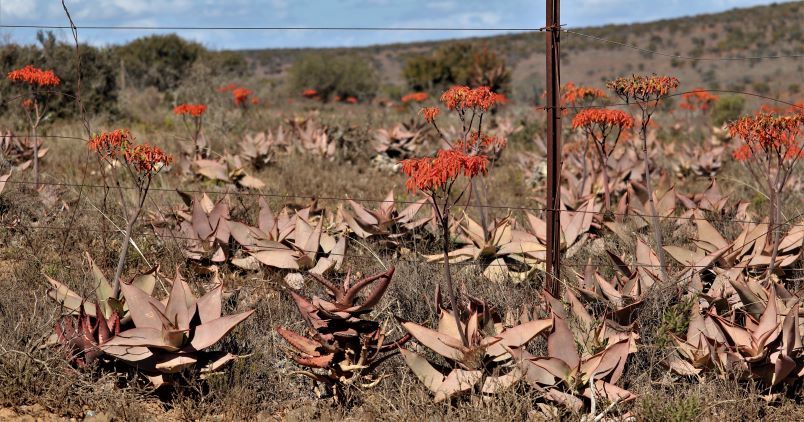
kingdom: Plantae
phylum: Tracheophyta
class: Liliopsida
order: Asparagales
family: Asphodelaceae
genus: Aloe
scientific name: Aloe striata
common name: Coral aloe
